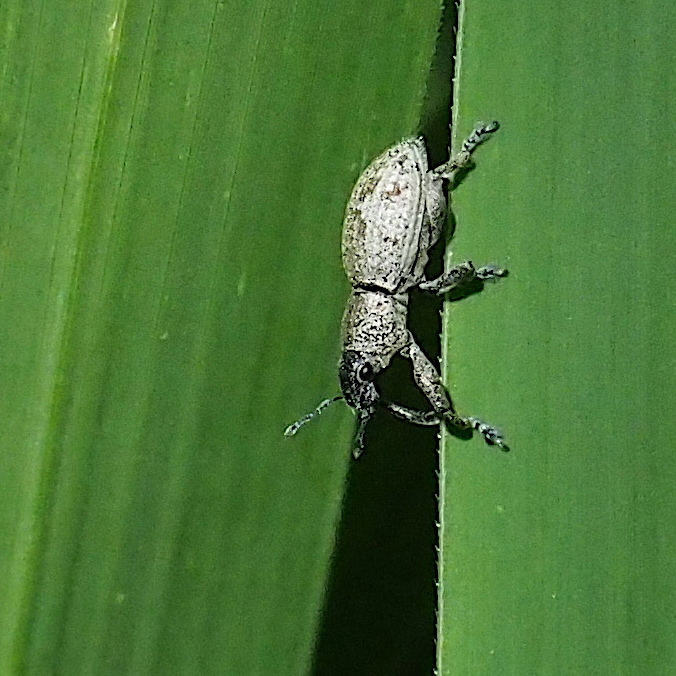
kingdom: Animalia
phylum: Arthropoda
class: Insecta
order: Coleoptera
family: Curculionidae
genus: Sympiezomias
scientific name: Sympiezomias cribricollis
